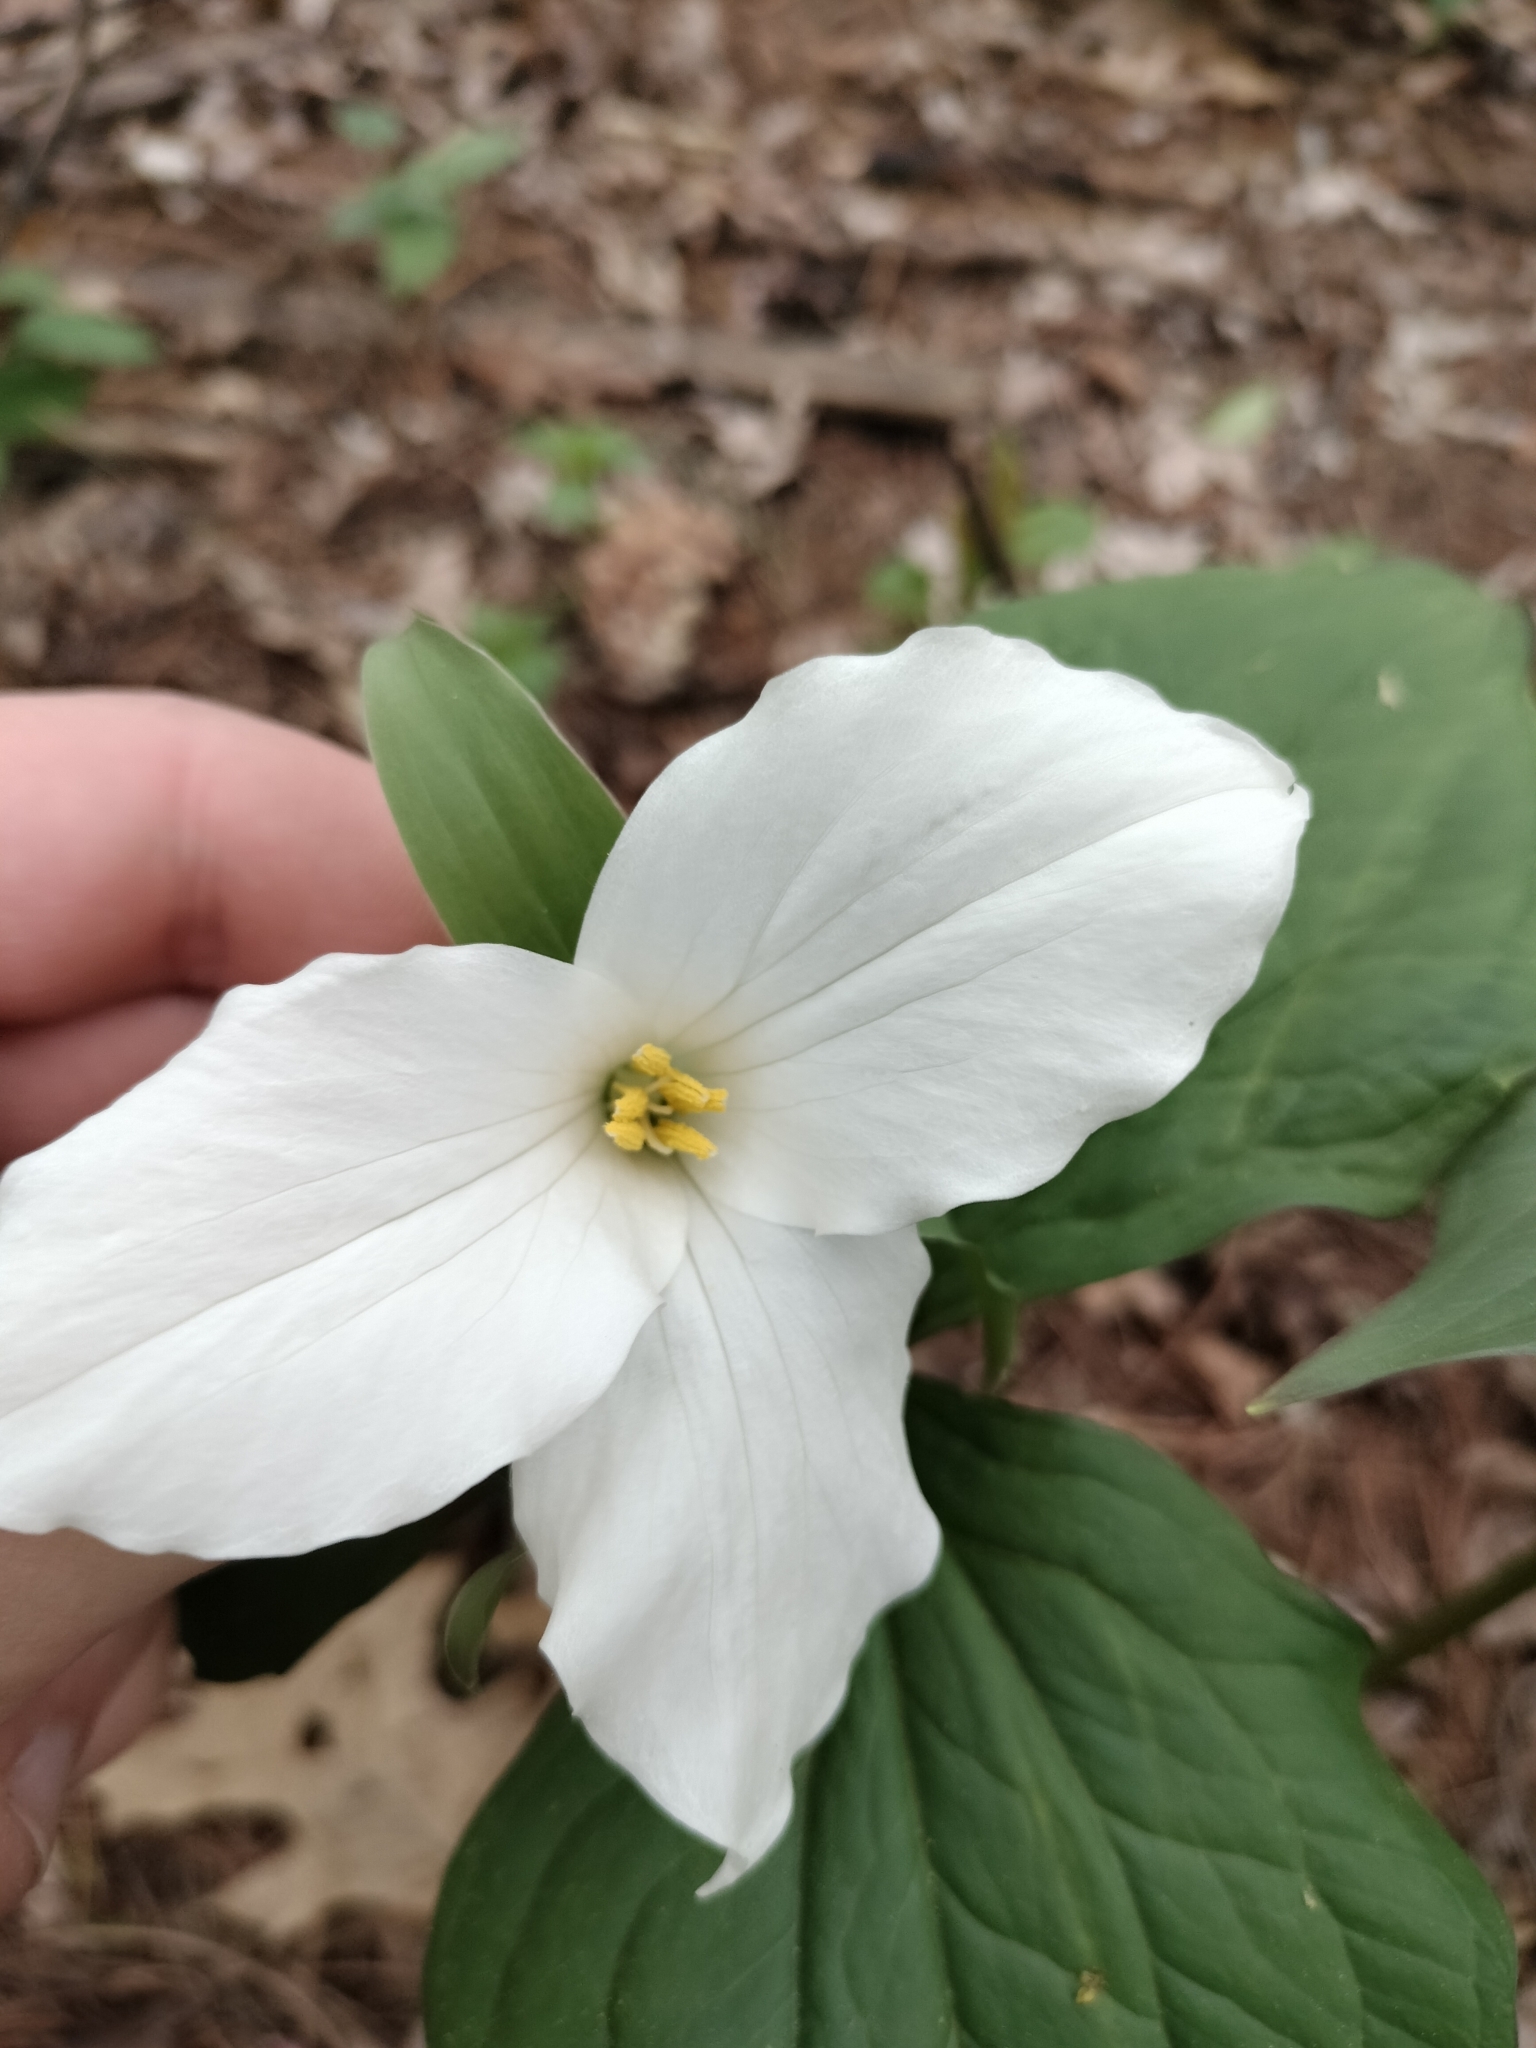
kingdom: Plantae
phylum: Tracheophyta
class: Liliopsida
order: Liliales
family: Melanthiaceae
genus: Trillium
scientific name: Trillium grandiflorum
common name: Great white trillium
